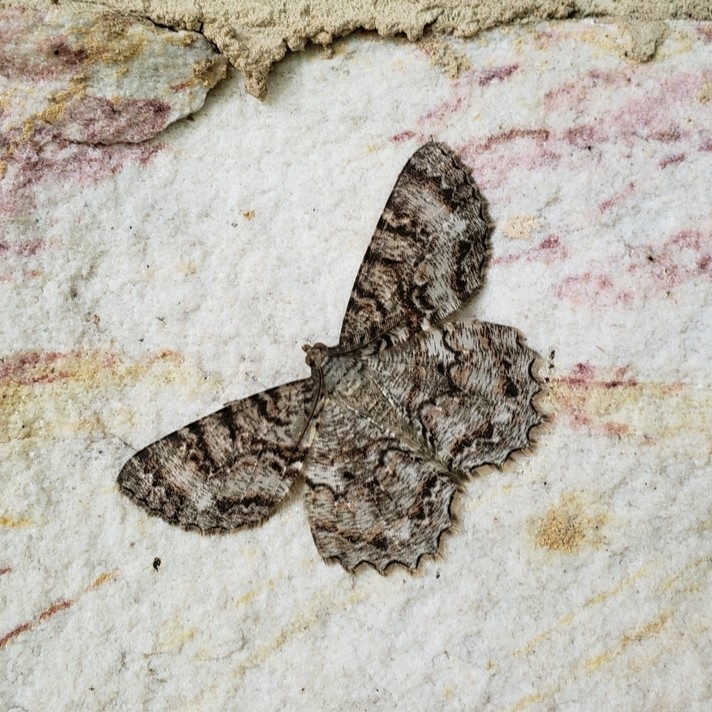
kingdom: Animalia
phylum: Arthropoda
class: Insecta
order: Lepidoptera
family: Geometridae
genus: Epimecis
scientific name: Epimecis hortaria
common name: Tulip-tree beauty
